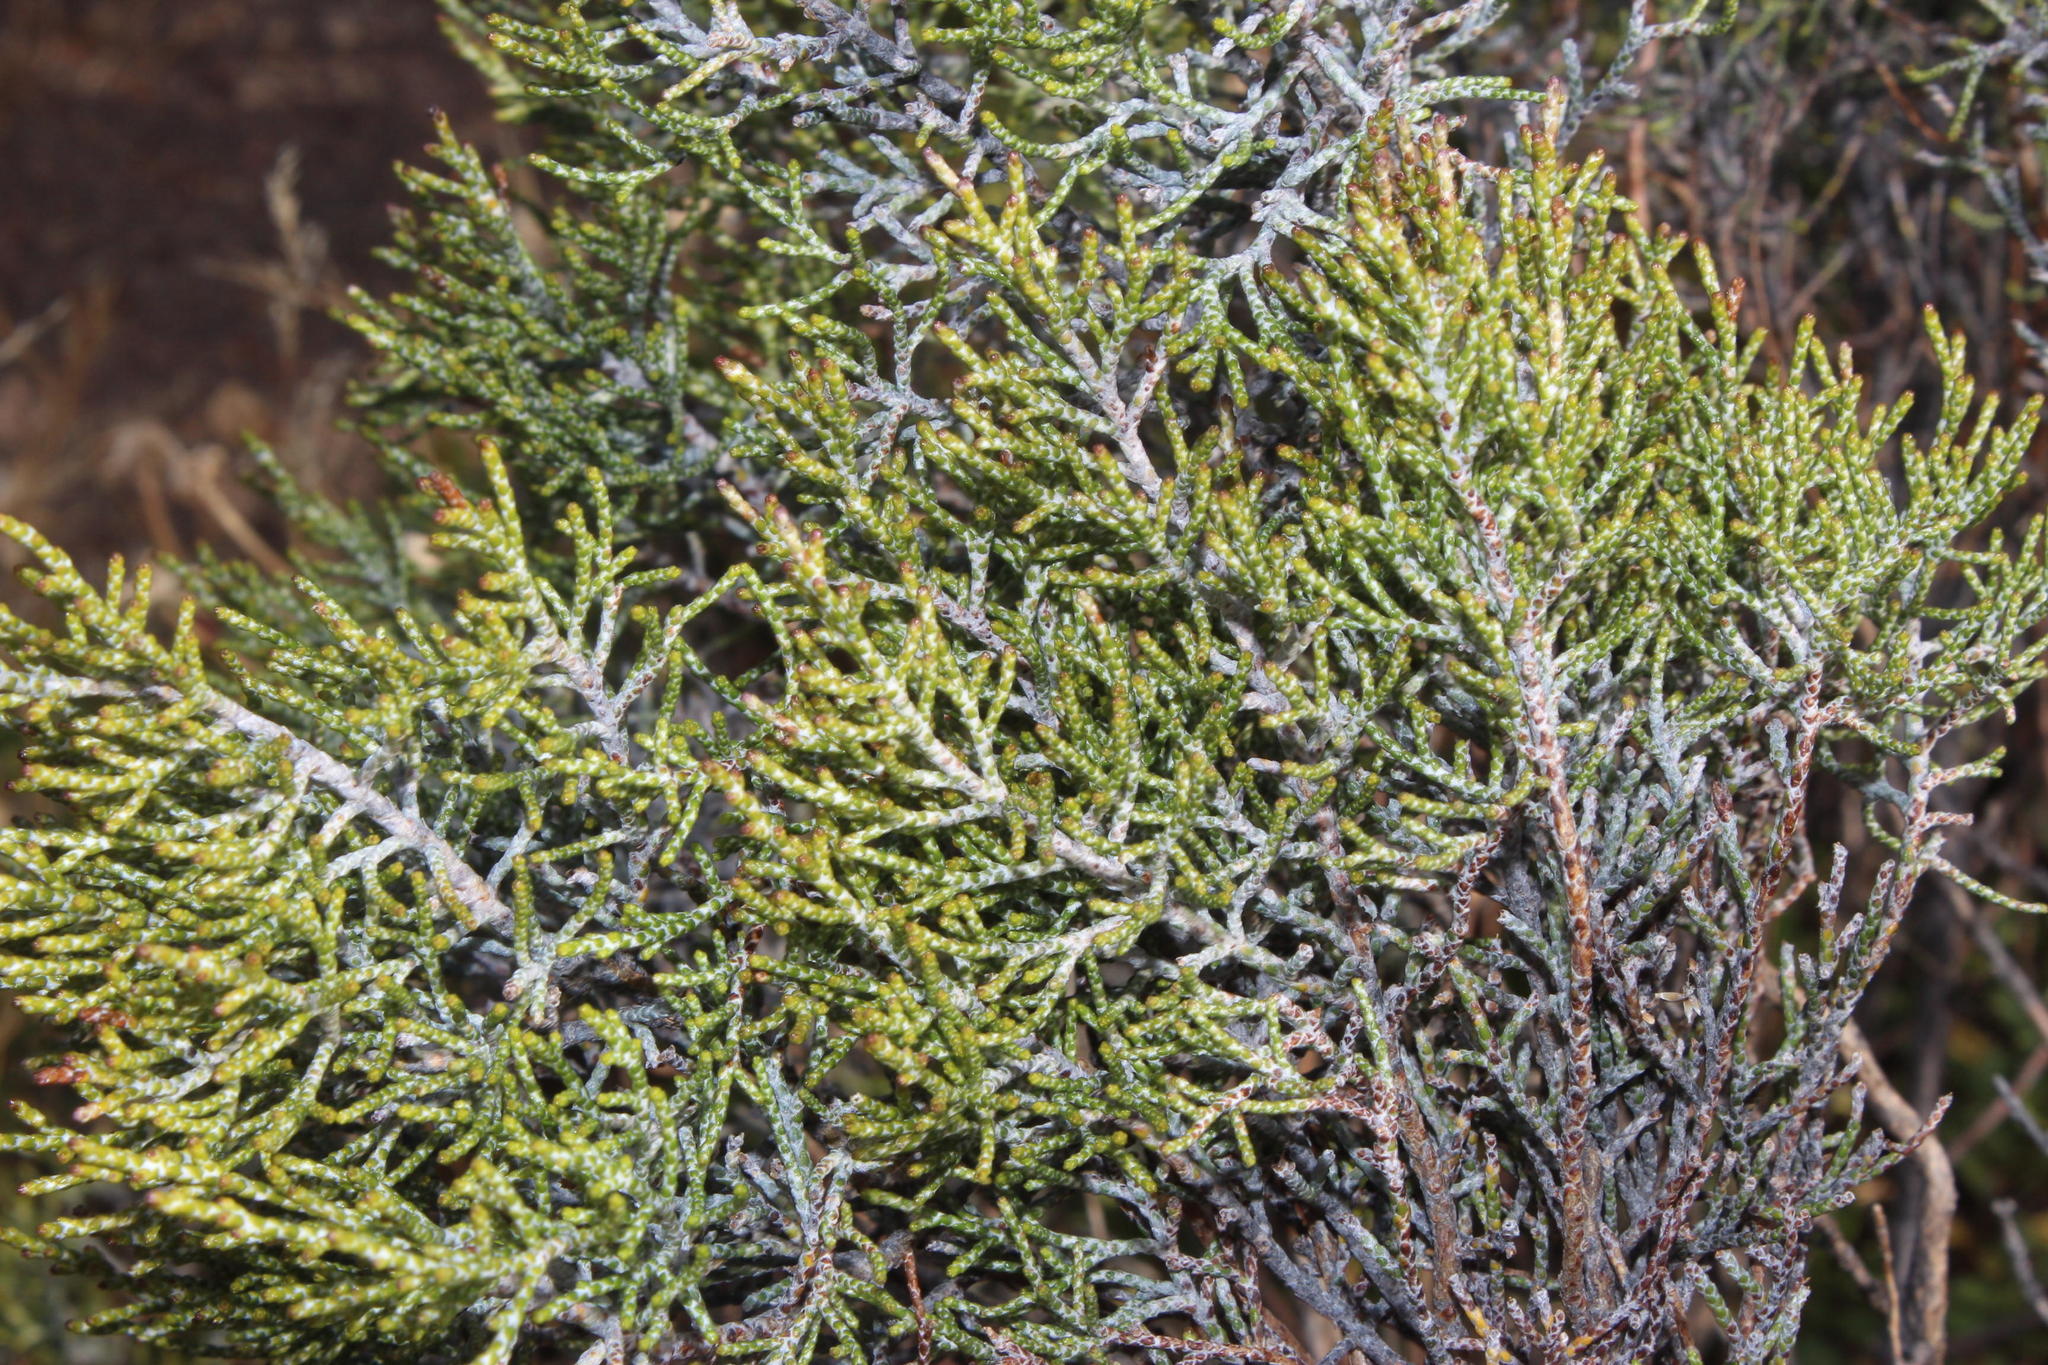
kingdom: Plantae
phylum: Tracheophyta
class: Magnoliopsida
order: Asterales
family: Asteraceae
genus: Dicerothamnus
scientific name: Dicerothamnus rhinocerotis
